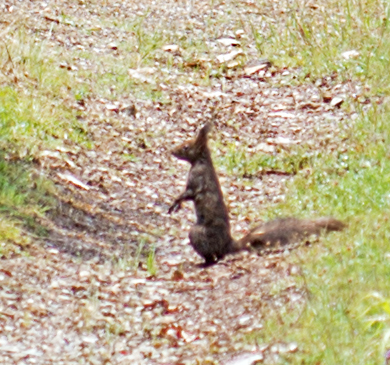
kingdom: Animalia
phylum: Chordata
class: Mammalia
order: Rodentia
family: Sciuridae
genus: Sciurus
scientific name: Sciurus vulgaris
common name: Eurasian red squirrel
